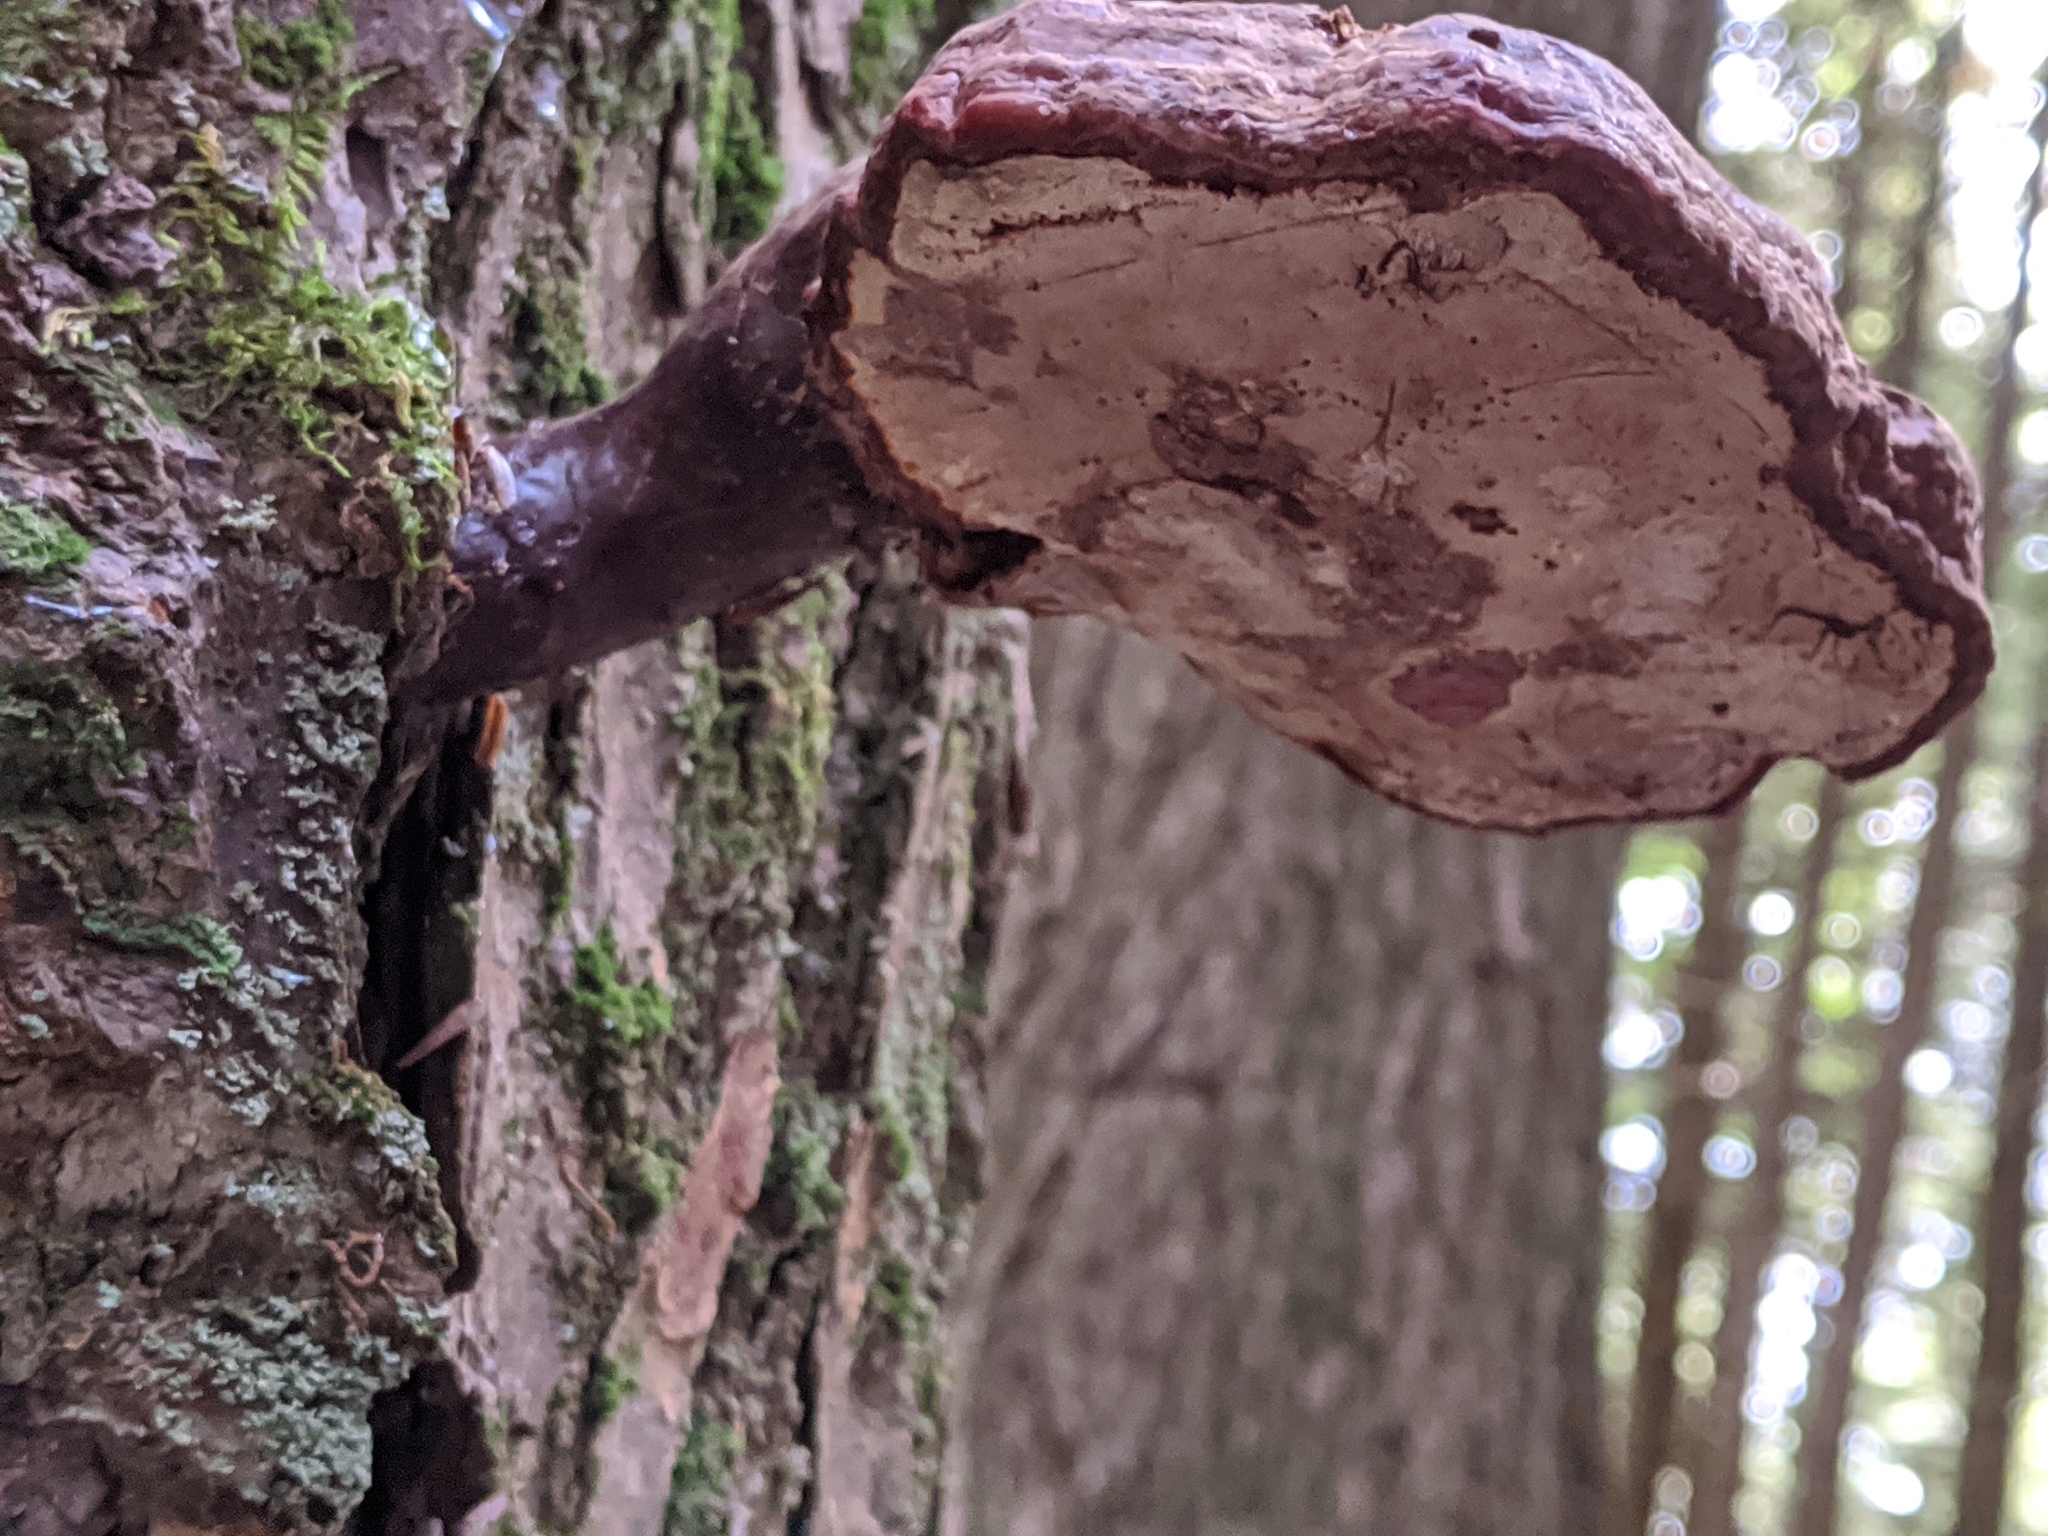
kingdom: Fungi
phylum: Basidiomycota
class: Agaricomycetes
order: Polyporales
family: Polyporaceae
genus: Ganoderma
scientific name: Ganoderma tsugae
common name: Hemlock varnish shelf
